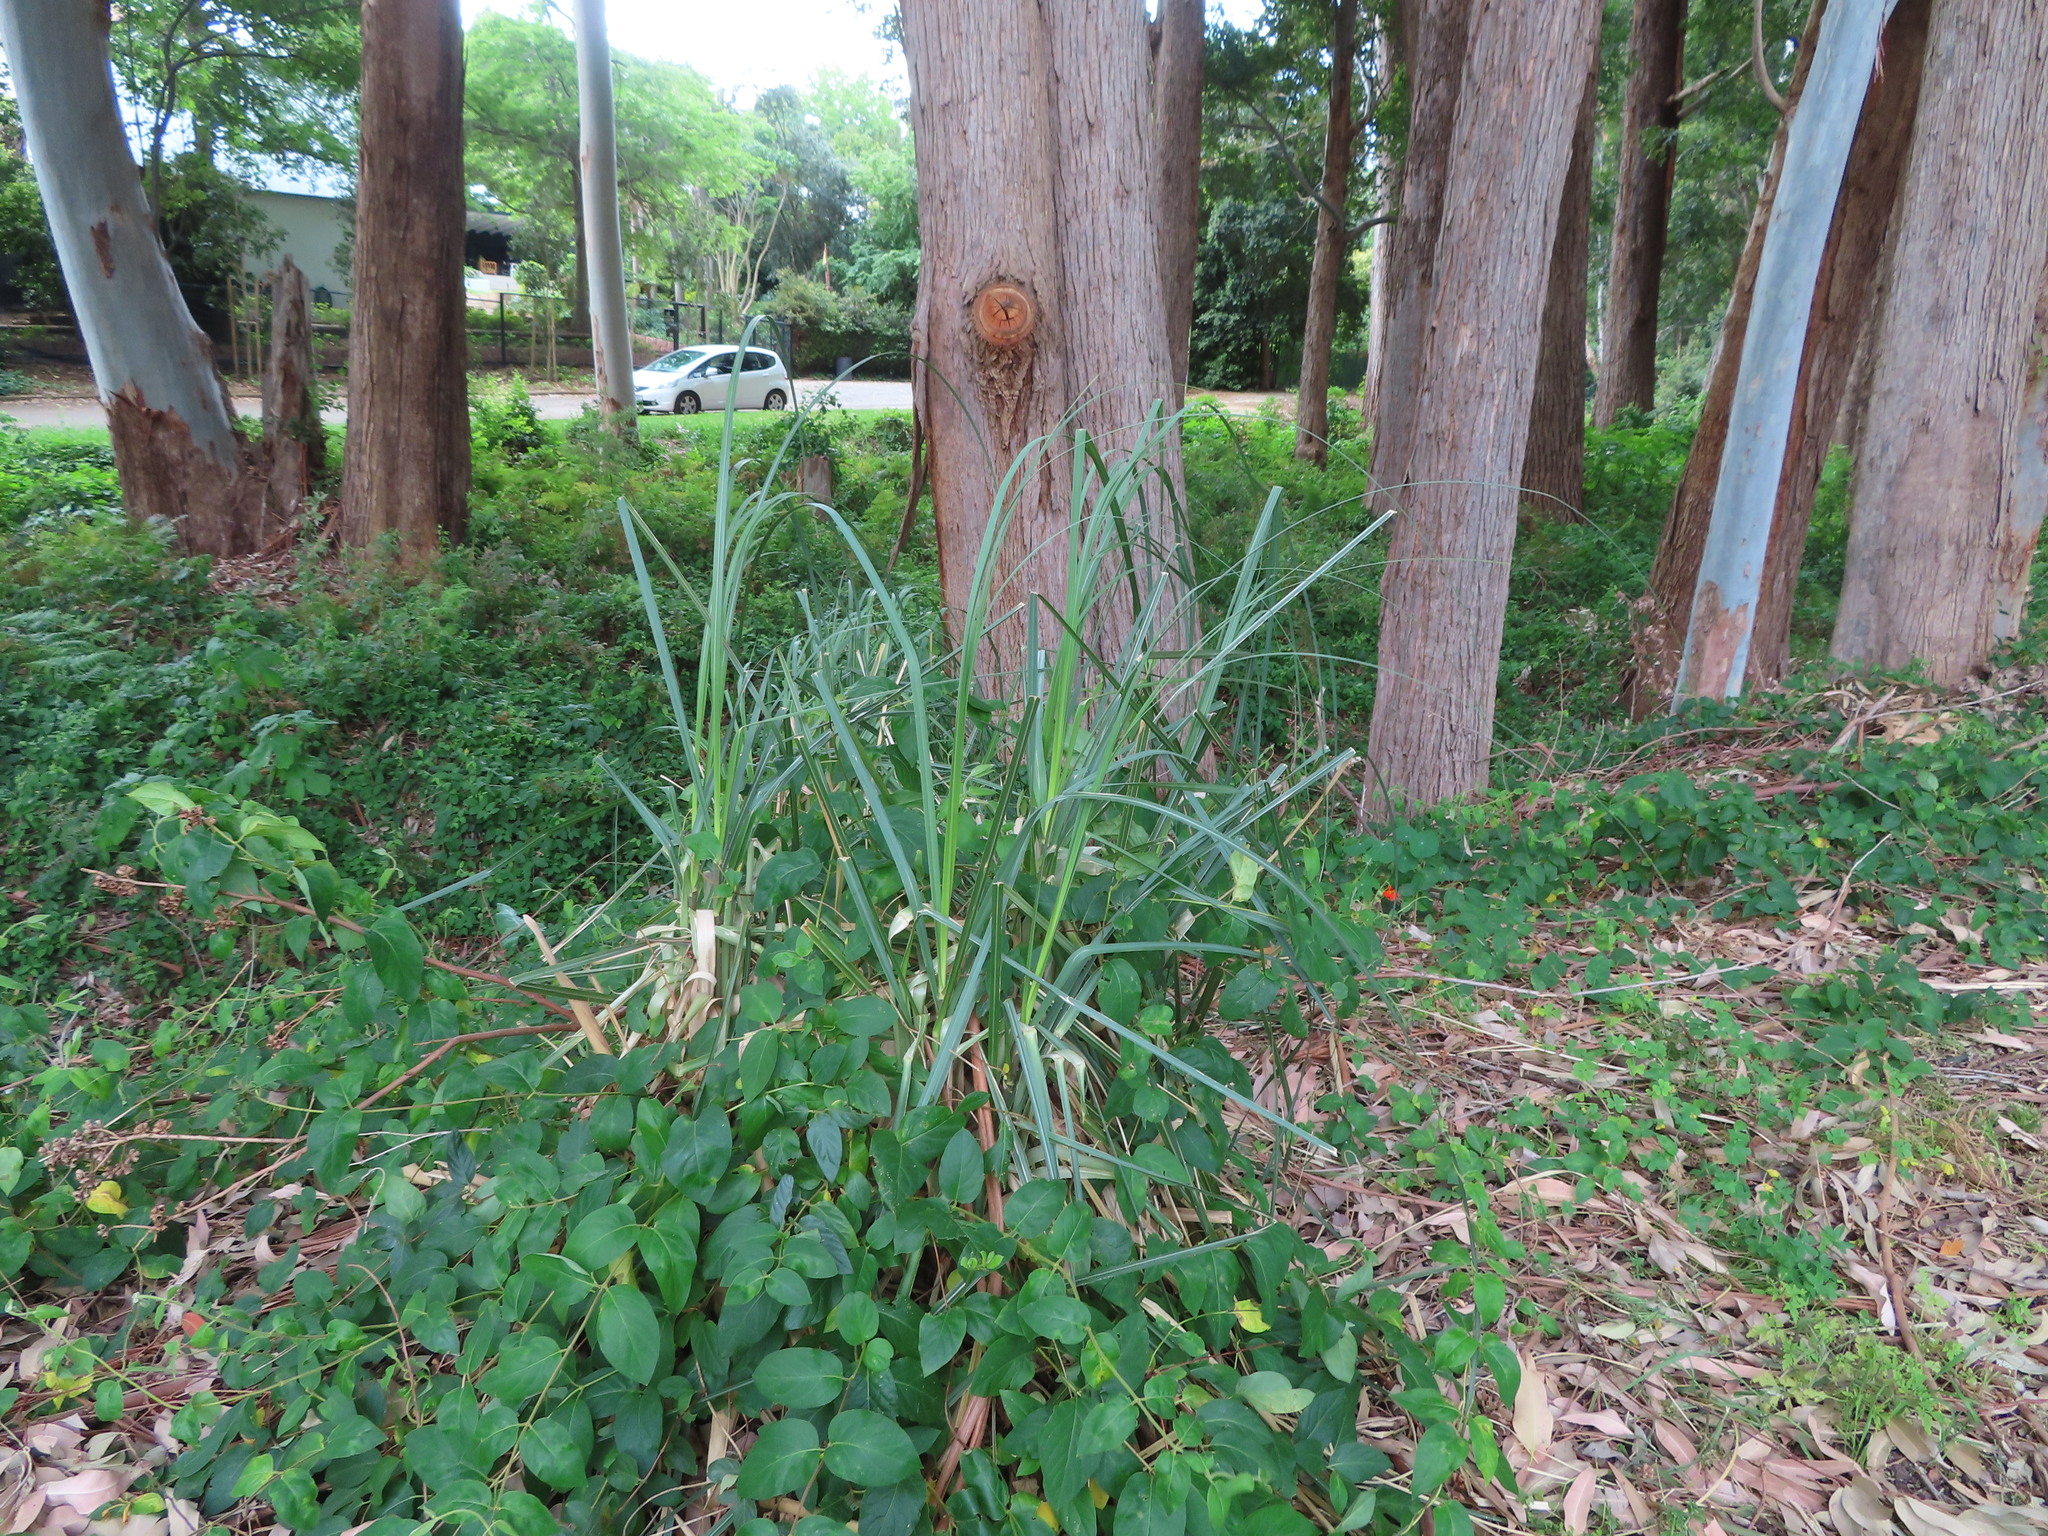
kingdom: Plantae
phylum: Tracheophyta
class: Liliopsida
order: Poales
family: Poaceae
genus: Cortaderia
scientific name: Cortaderia selloana
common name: Uruguayan pampas grass
